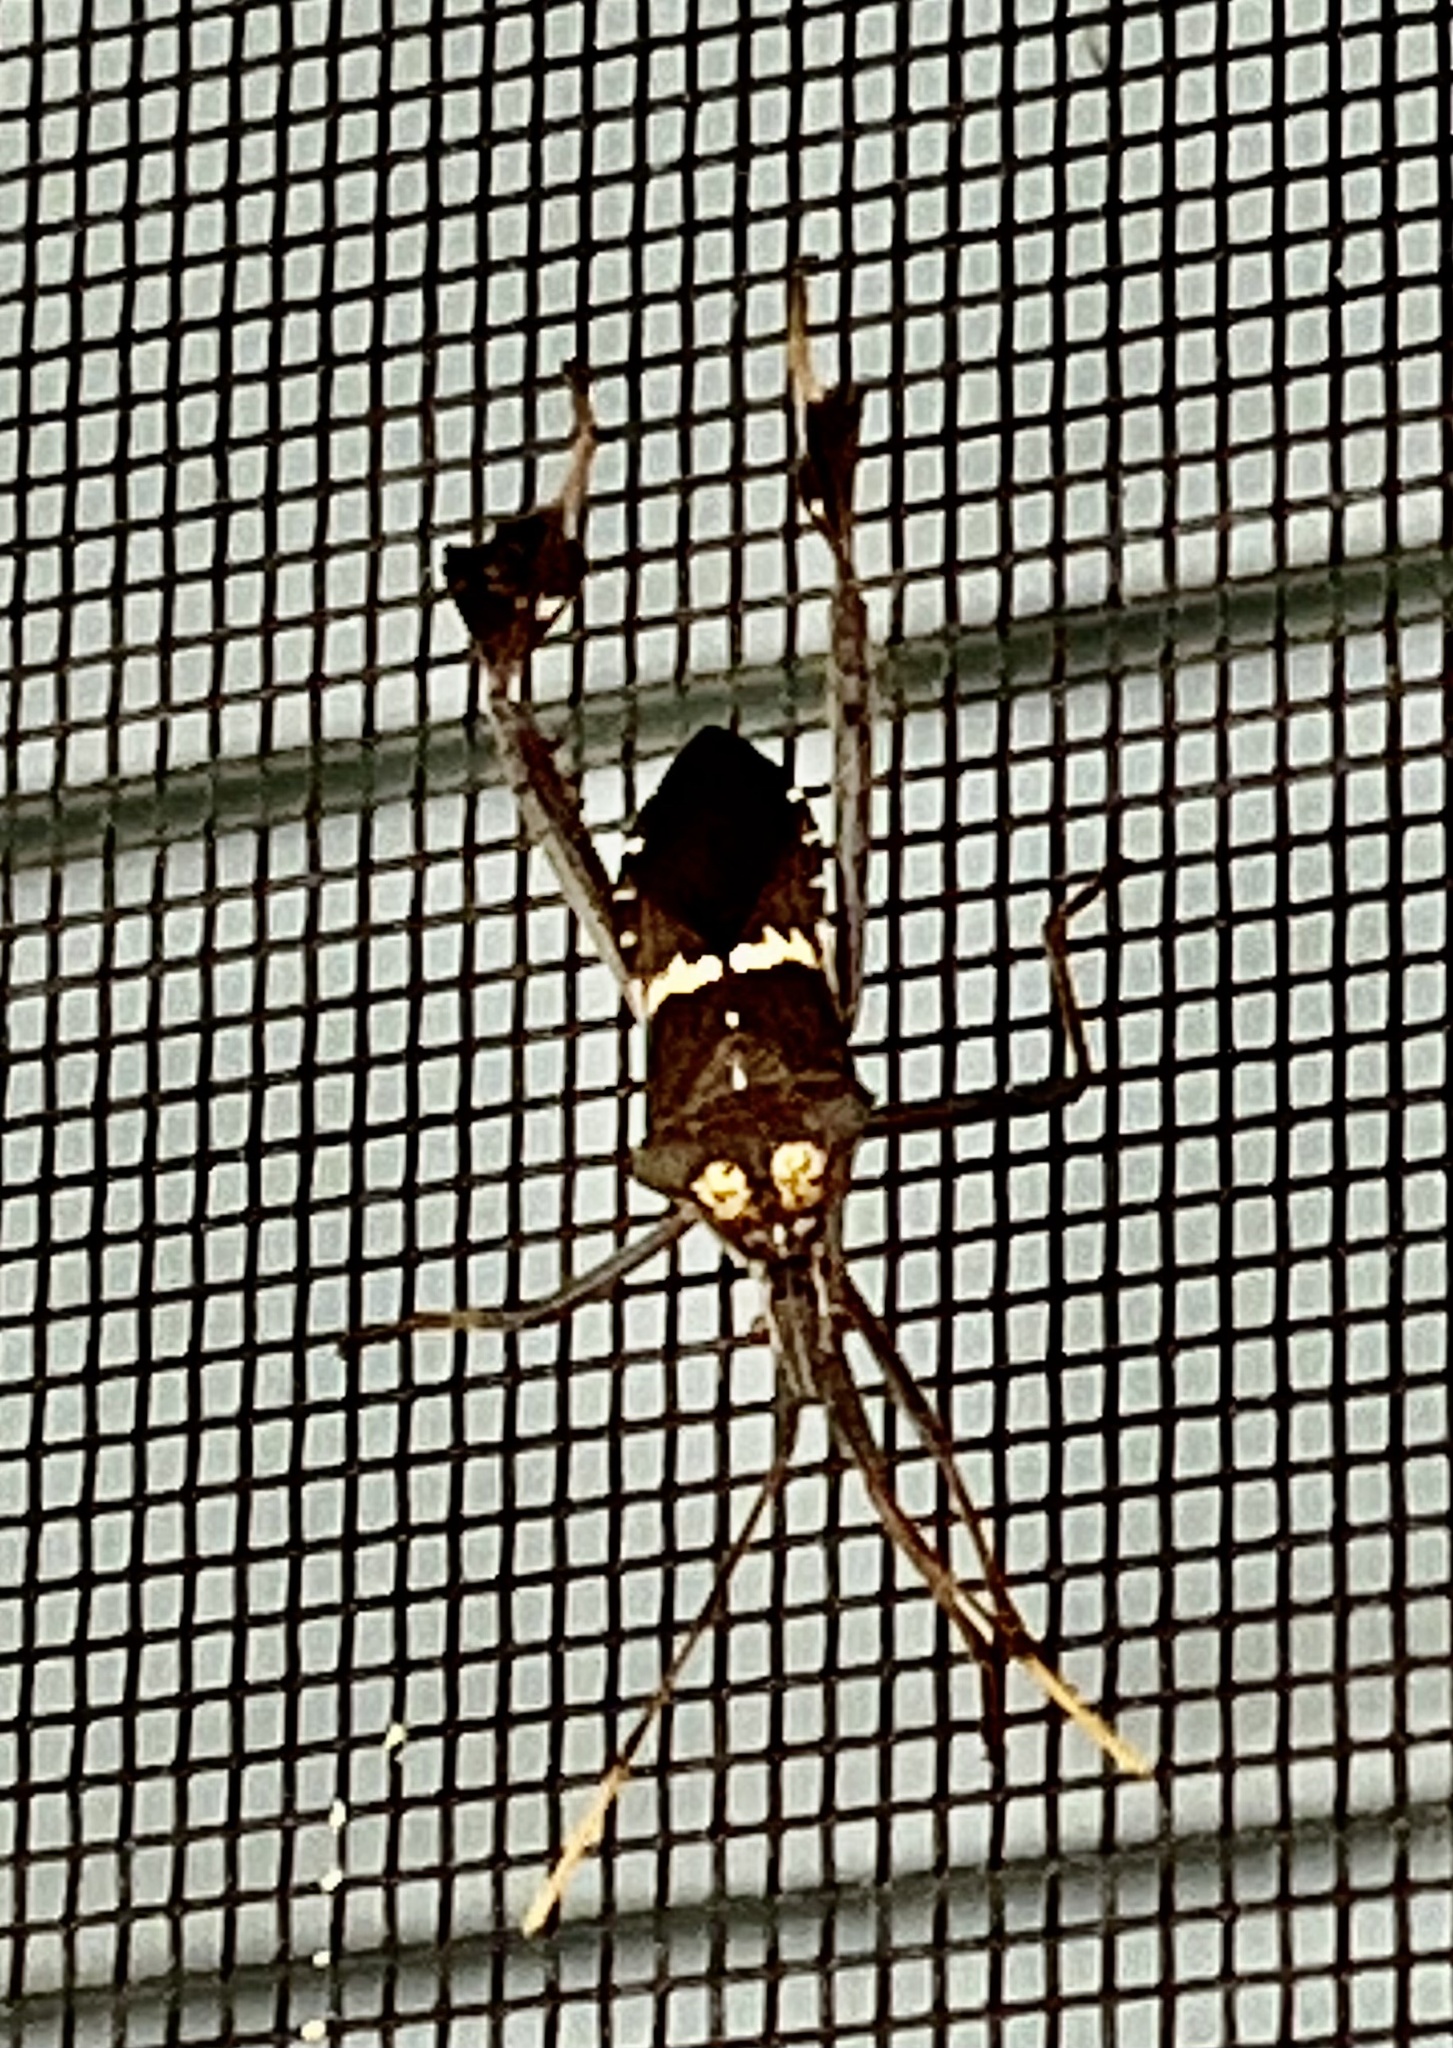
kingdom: Animalia
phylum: Arthropoda
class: Insecta
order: Hemiptera
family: Coreidae
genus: Leptoglossus
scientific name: Leptoglossus zonatus
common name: Large-legged bug
